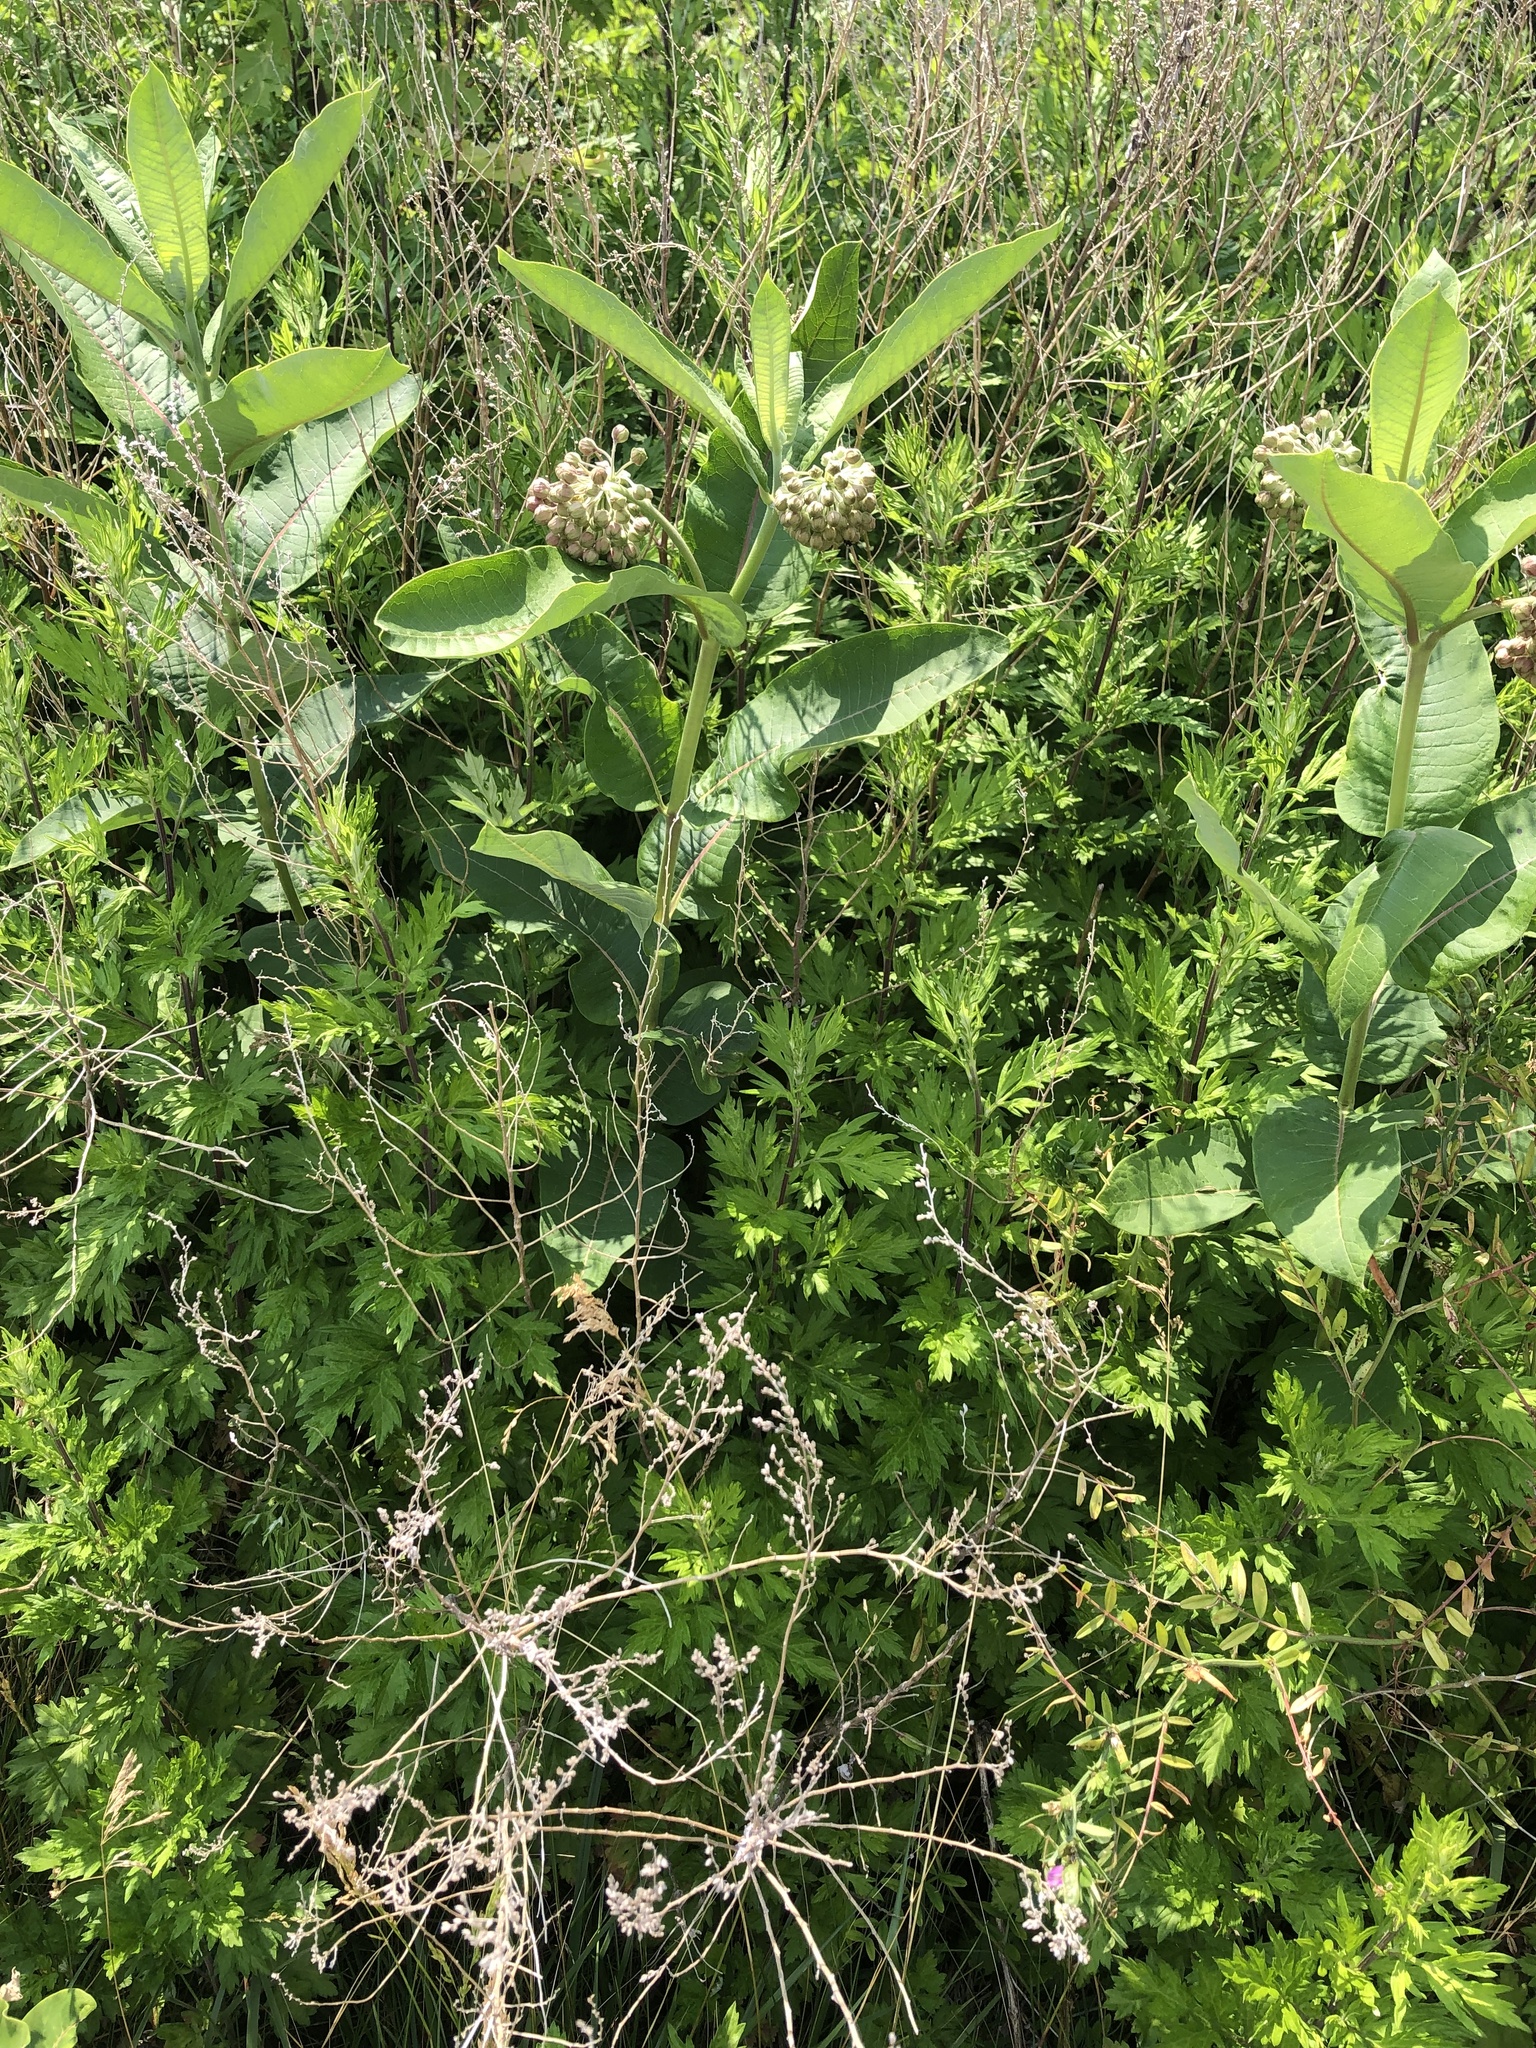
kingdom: Plantae
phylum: Tracheophyta
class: Magnoliopsida
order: Gentianales
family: Apocynaceae
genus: Asclepias
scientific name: Asclepias syriaca
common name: Common milkweed
